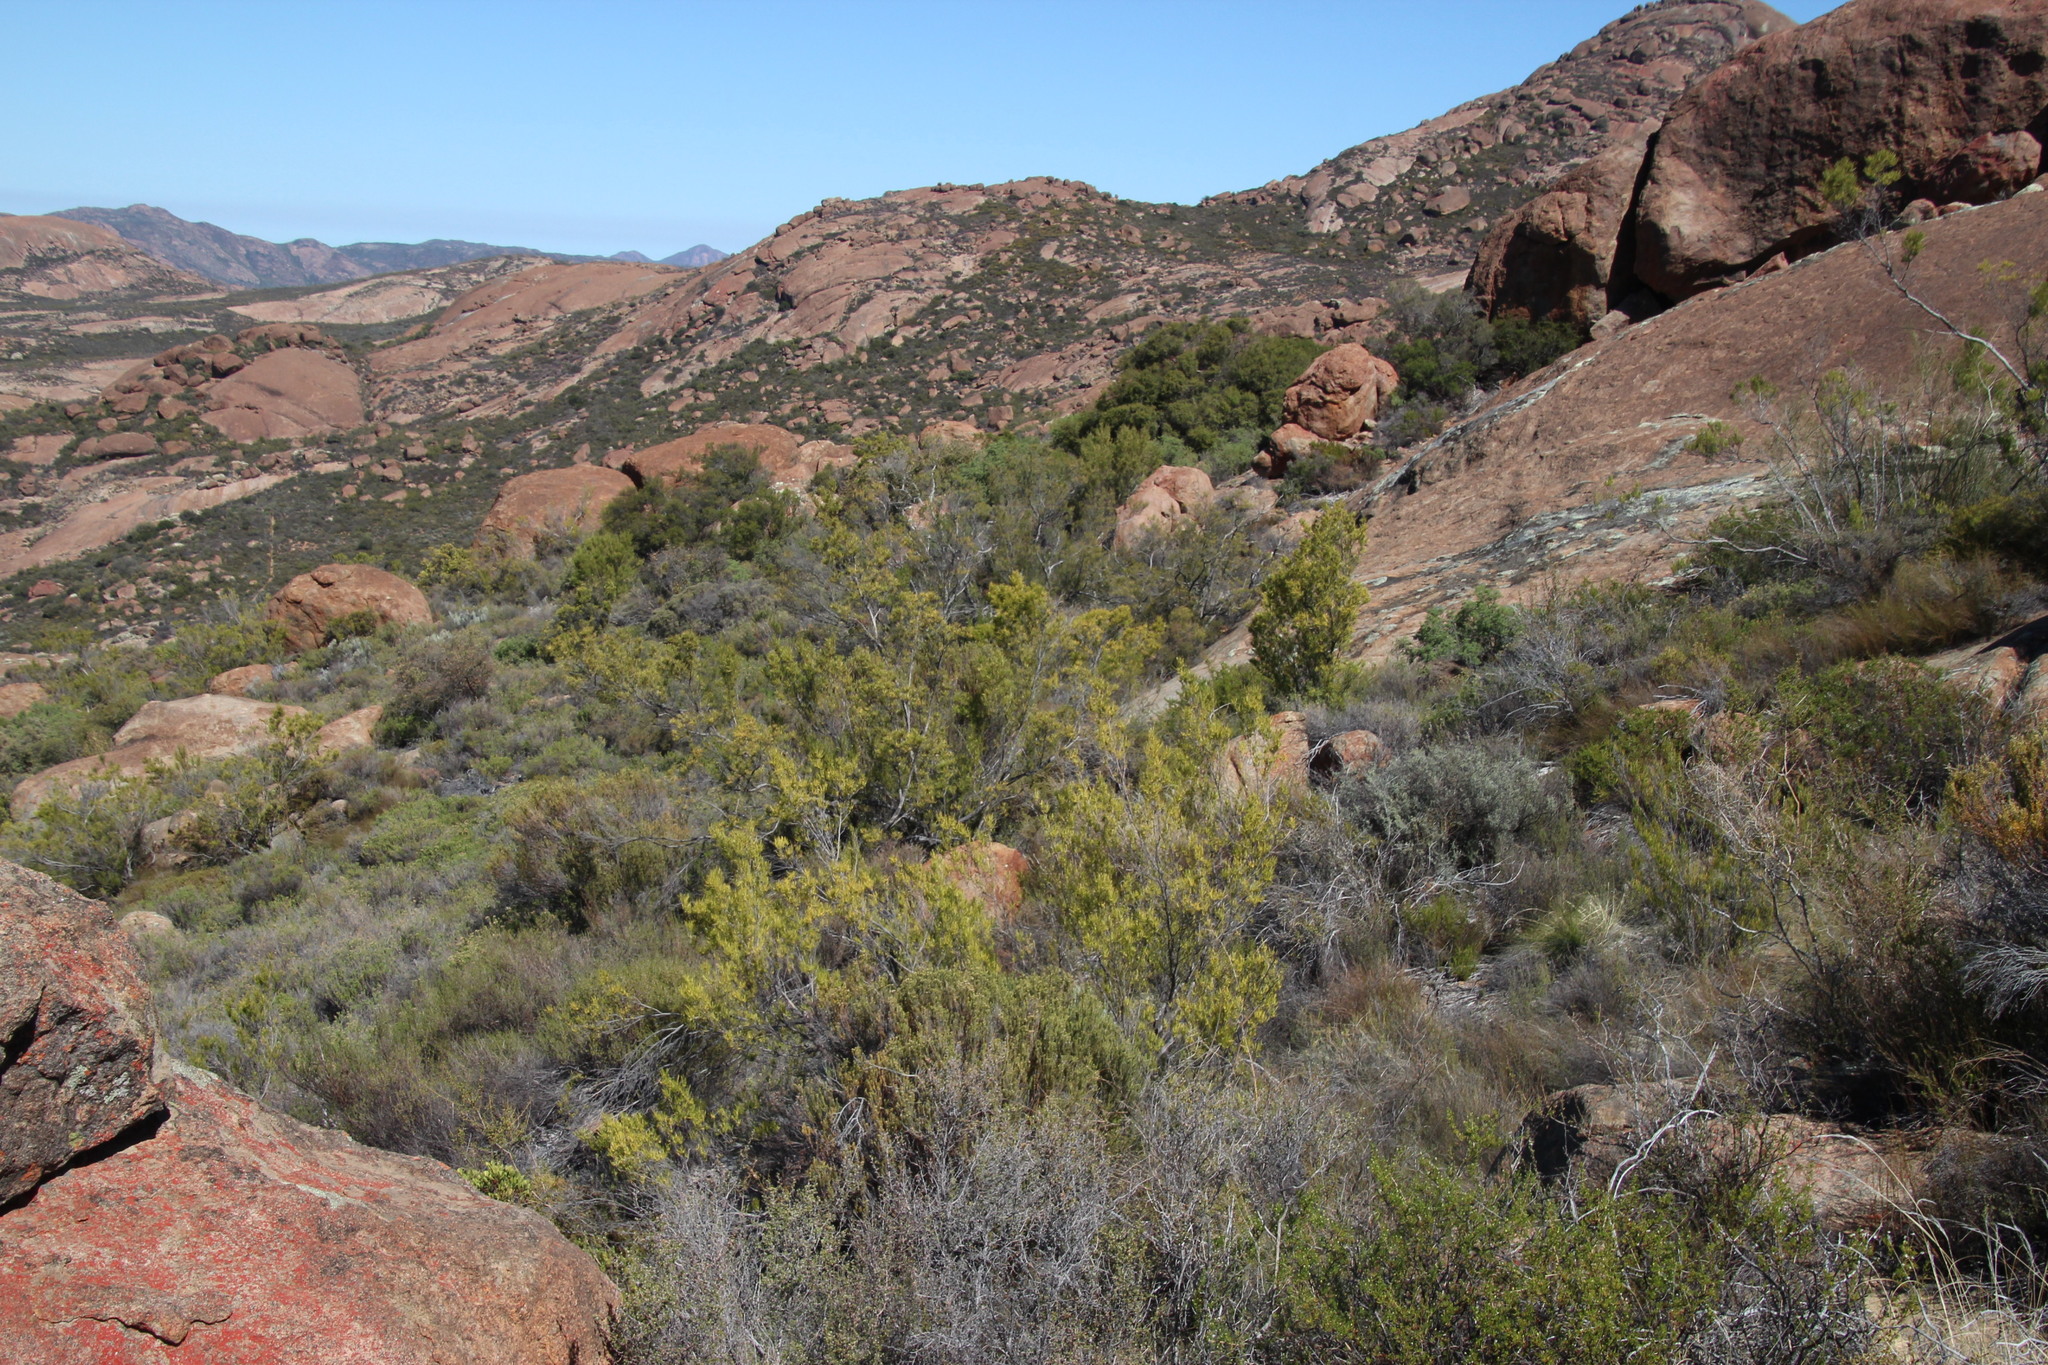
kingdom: Plantae
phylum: Tracheophyta
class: Magnoliopsida
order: Sapindales
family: Sapindaceae
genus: Dodonaea
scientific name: Dodonaea viscosa
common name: Hopbush
